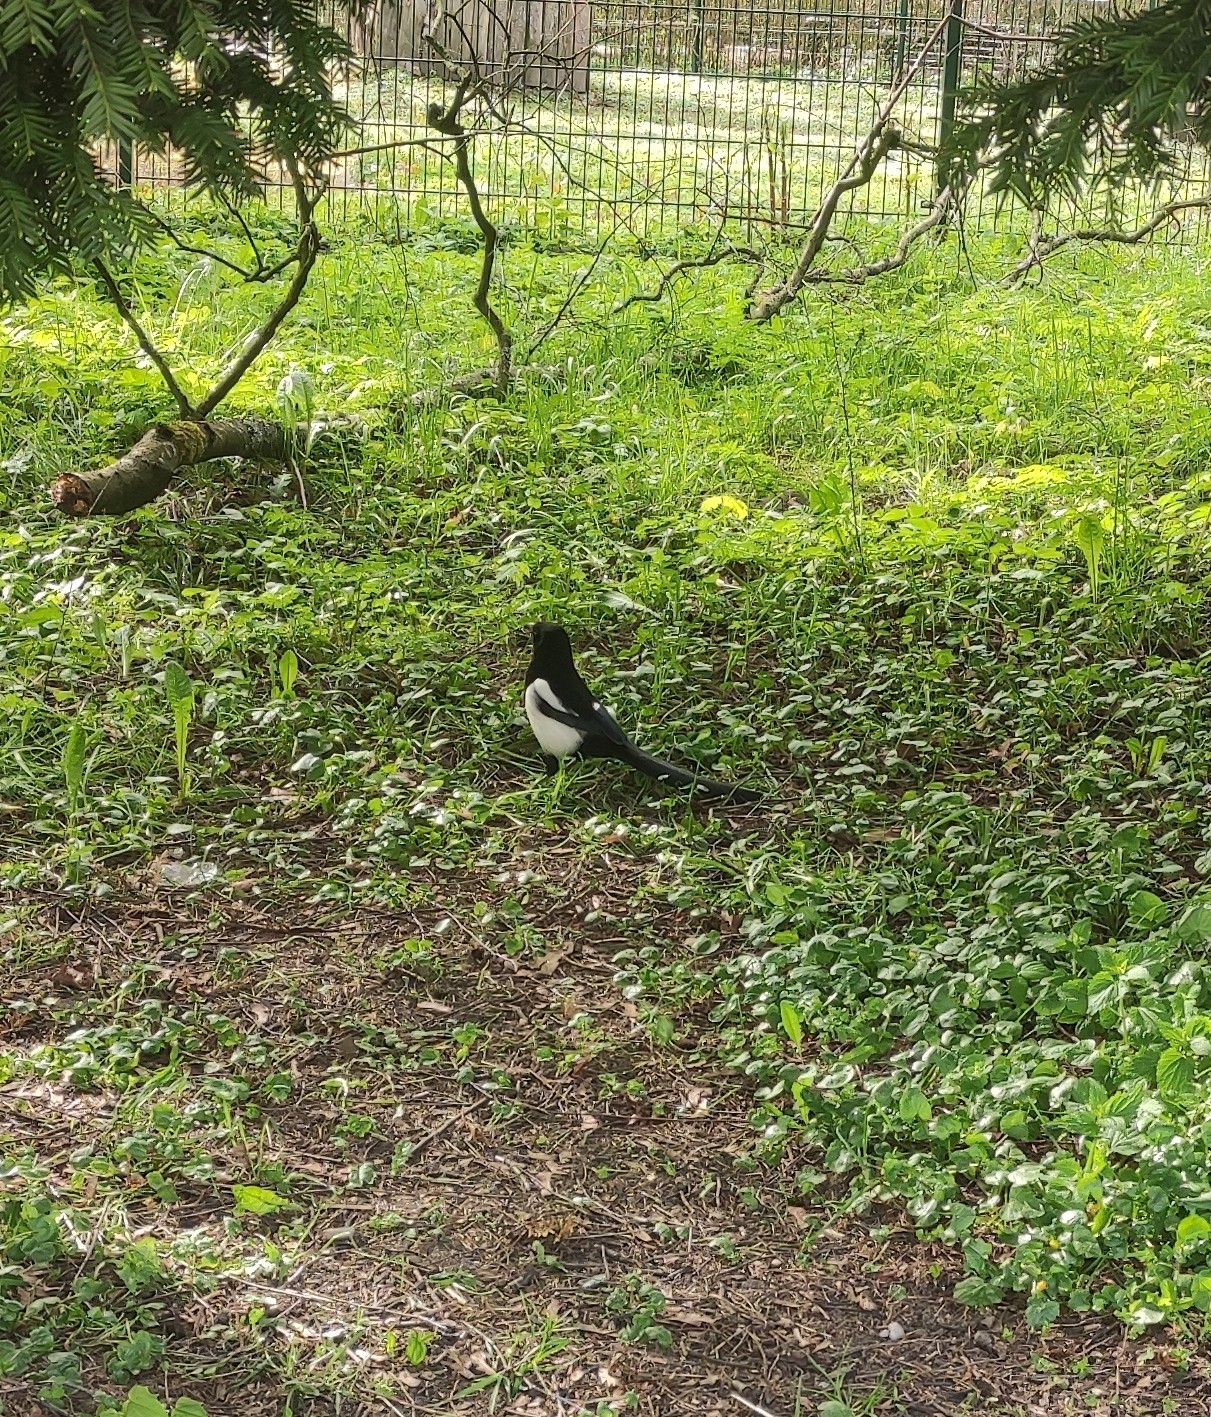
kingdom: Animalia
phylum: Chordata
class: Aves
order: Passeriformes
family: Corvidae
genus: Pica
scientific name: Pica pica
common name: Eurasian magpie
